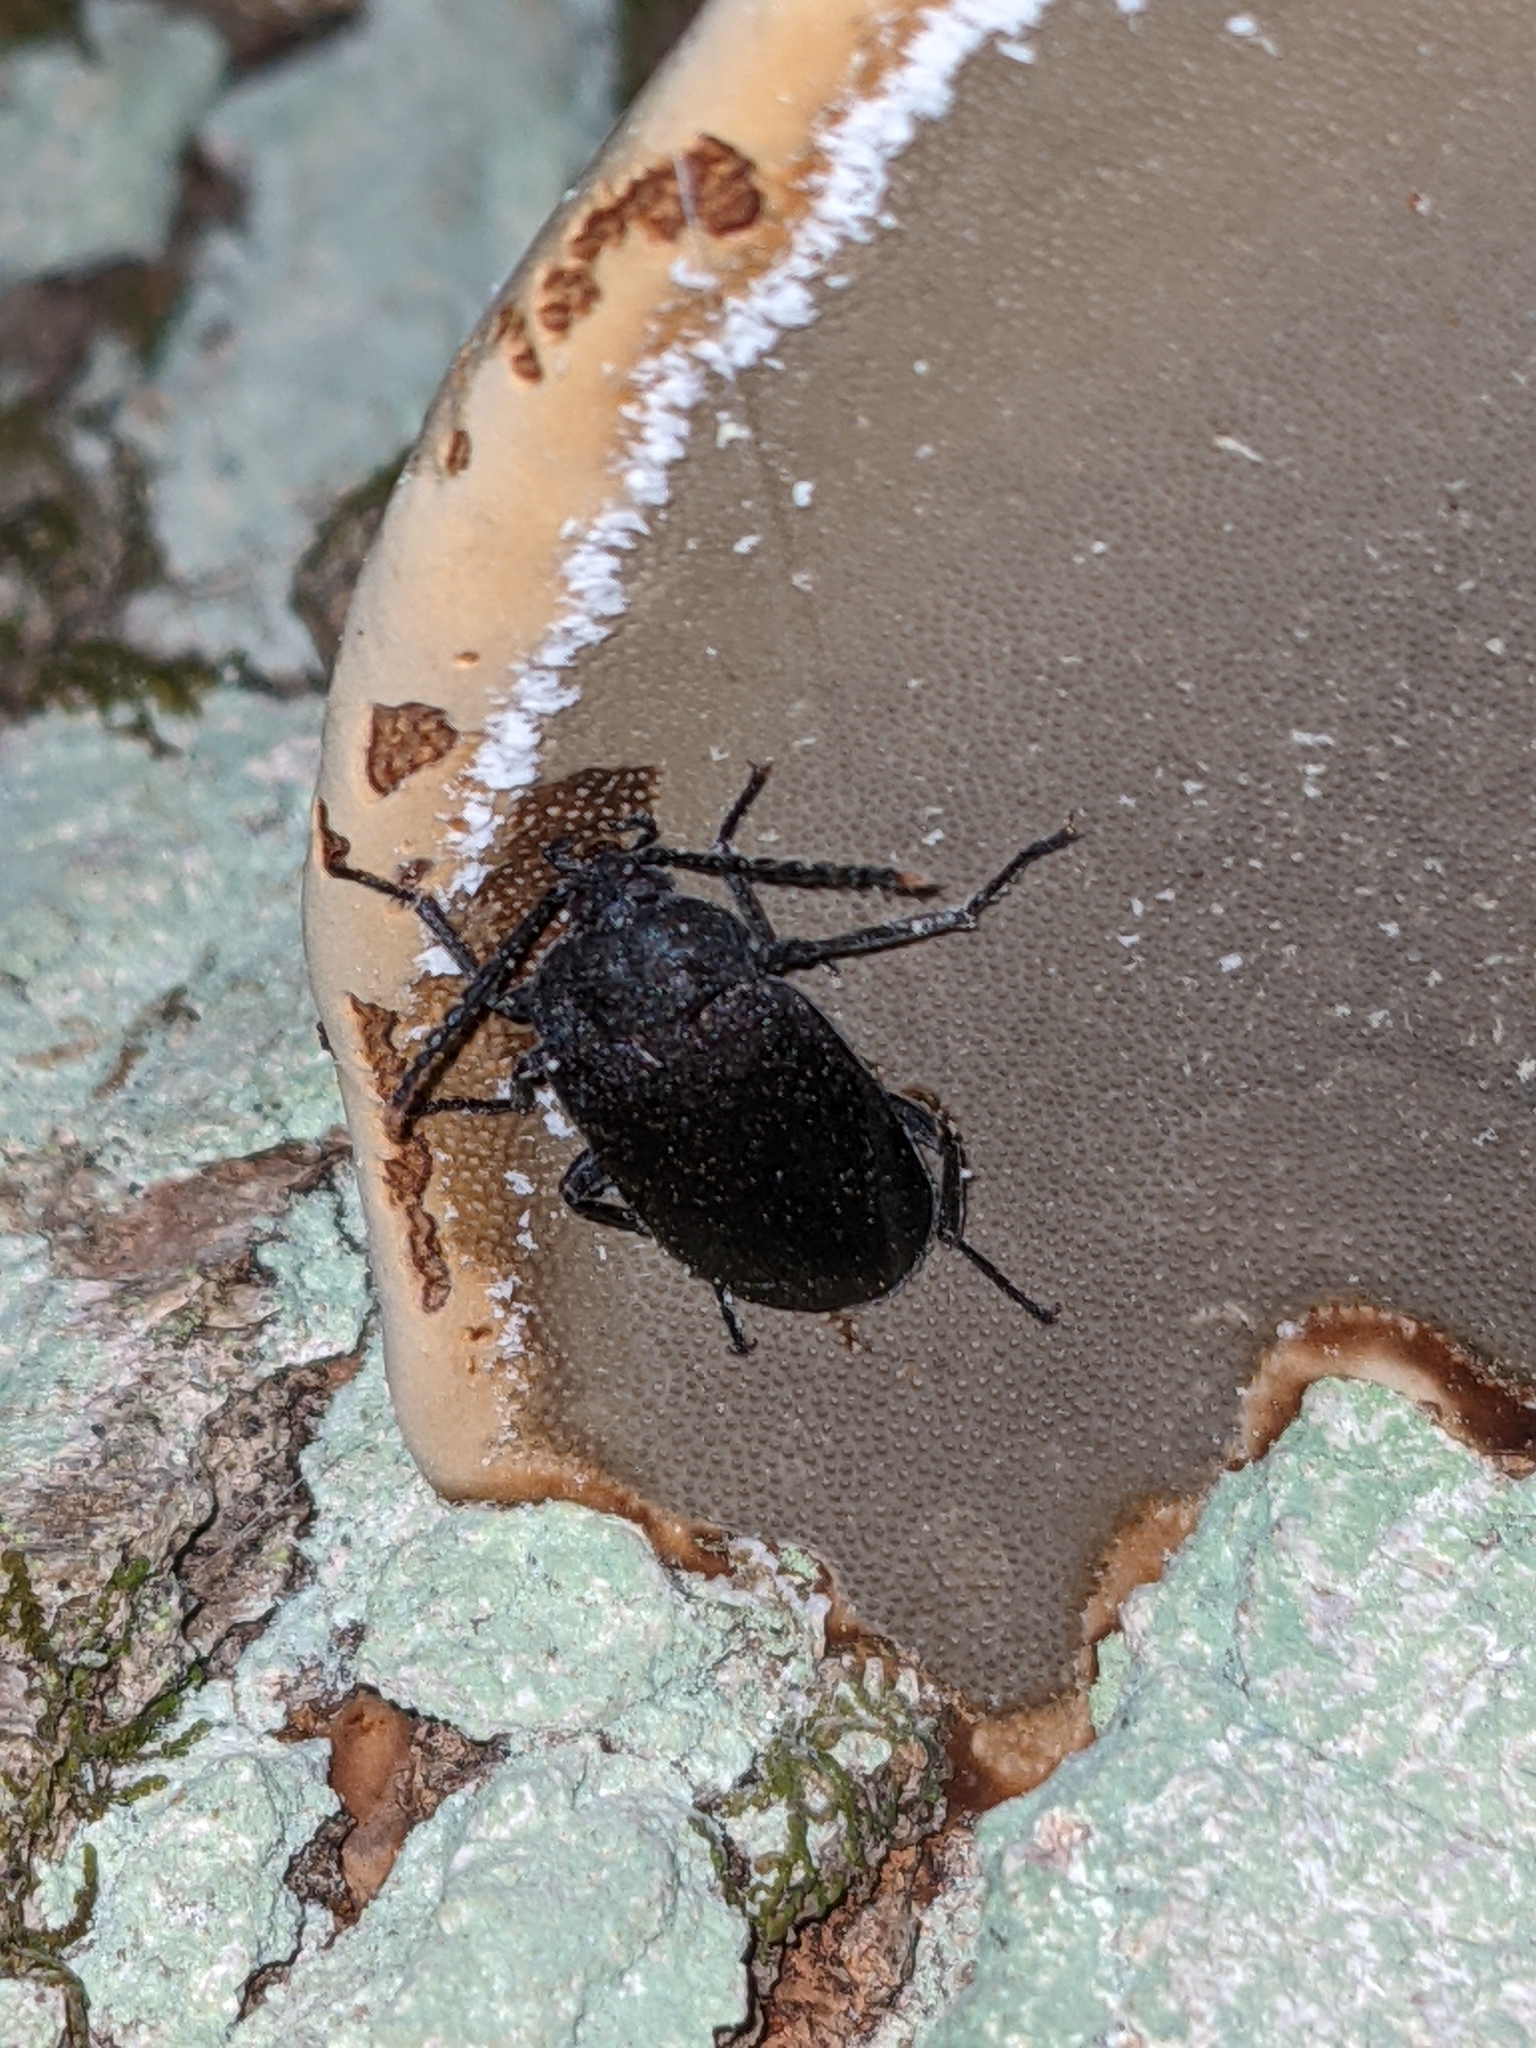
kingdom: Animalia
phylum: Arthropoda
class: Insecta
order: Coleoptera
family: Tetratomidae
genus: Penthe
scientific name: Penthe pimelia
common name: Velvety bark beetle
